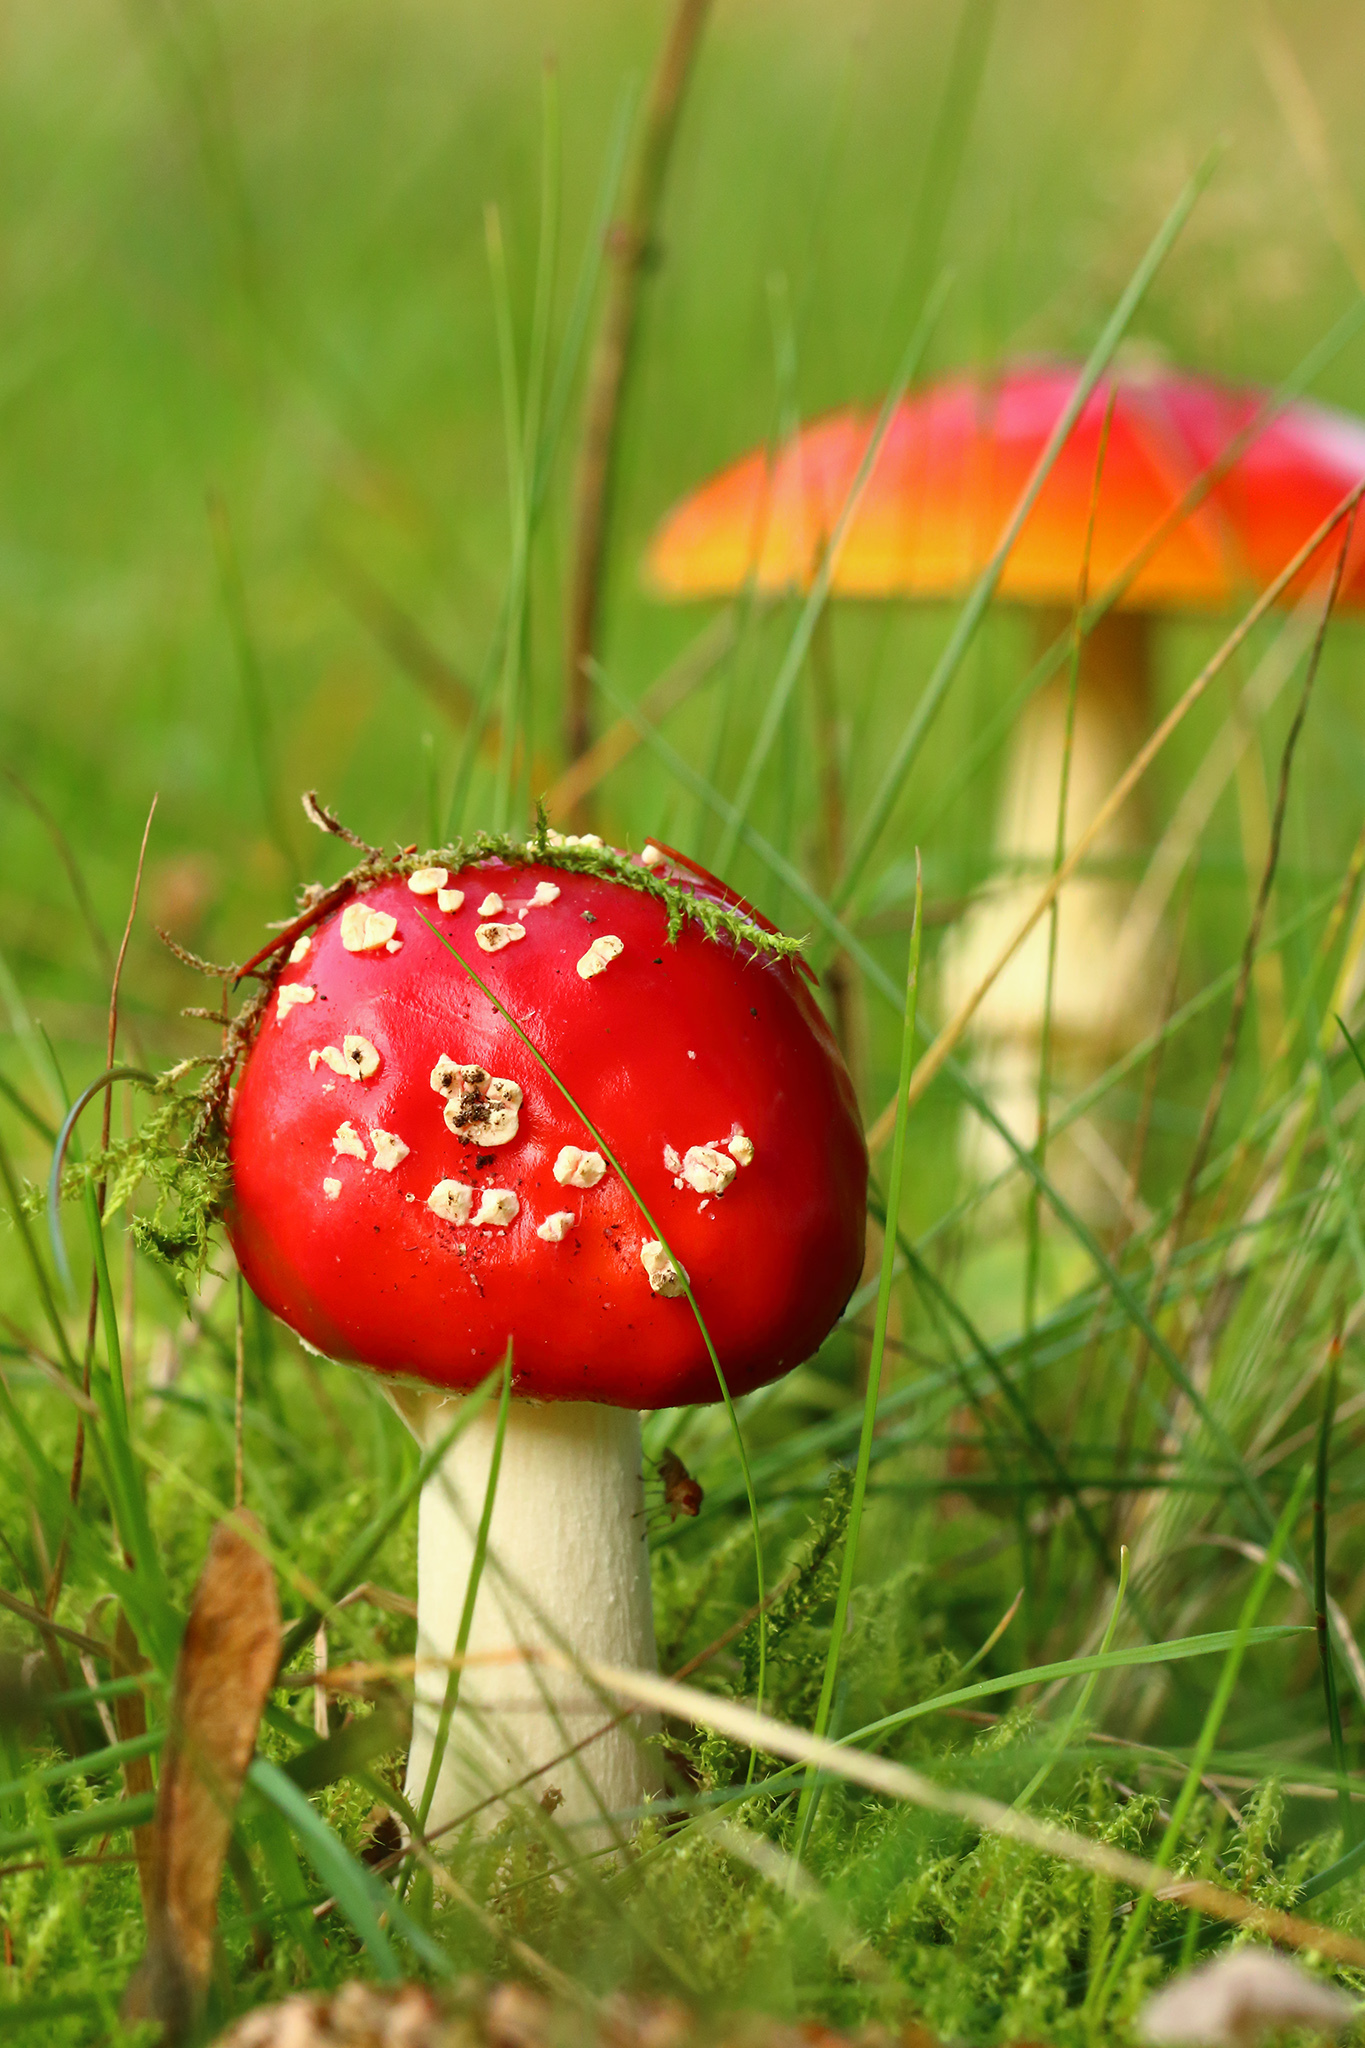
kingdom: Fungi
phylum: Basidiomycota
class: Agaricomycetes
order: Agaricales
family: Amanitaceae
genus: Amanita
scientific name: Amanita muscaria
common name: Fly agaric
